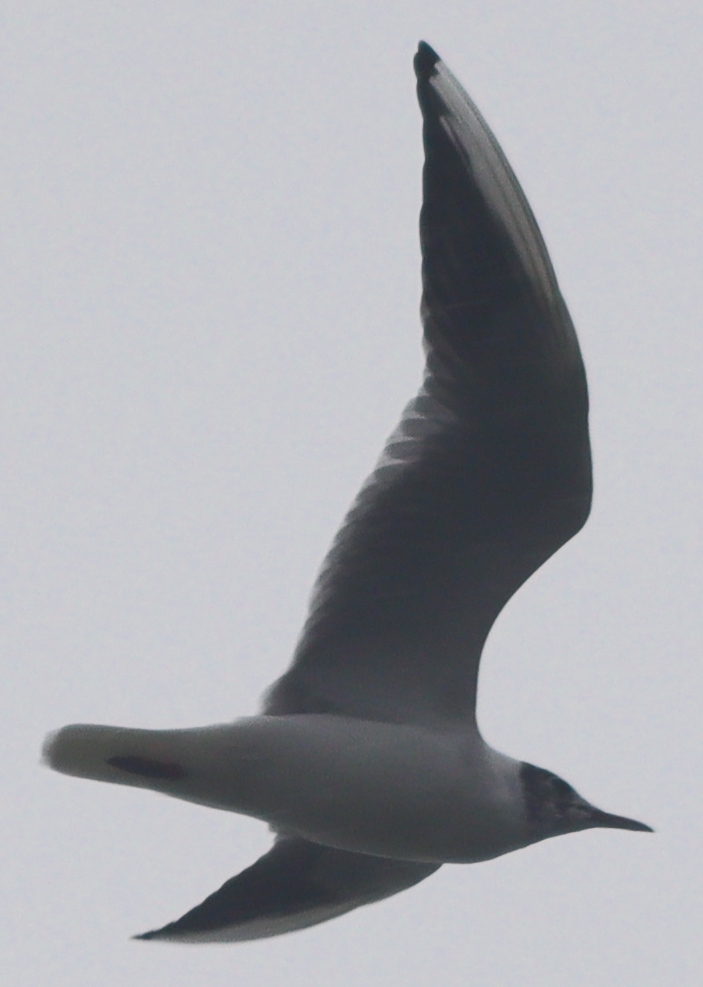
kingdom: Animalia
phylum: Chordata
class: Aves
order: Charadriiformes
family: Laridae
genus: Chroicocephalus
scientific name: Chroicocephalus ridibundus
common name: Black-headed gull
